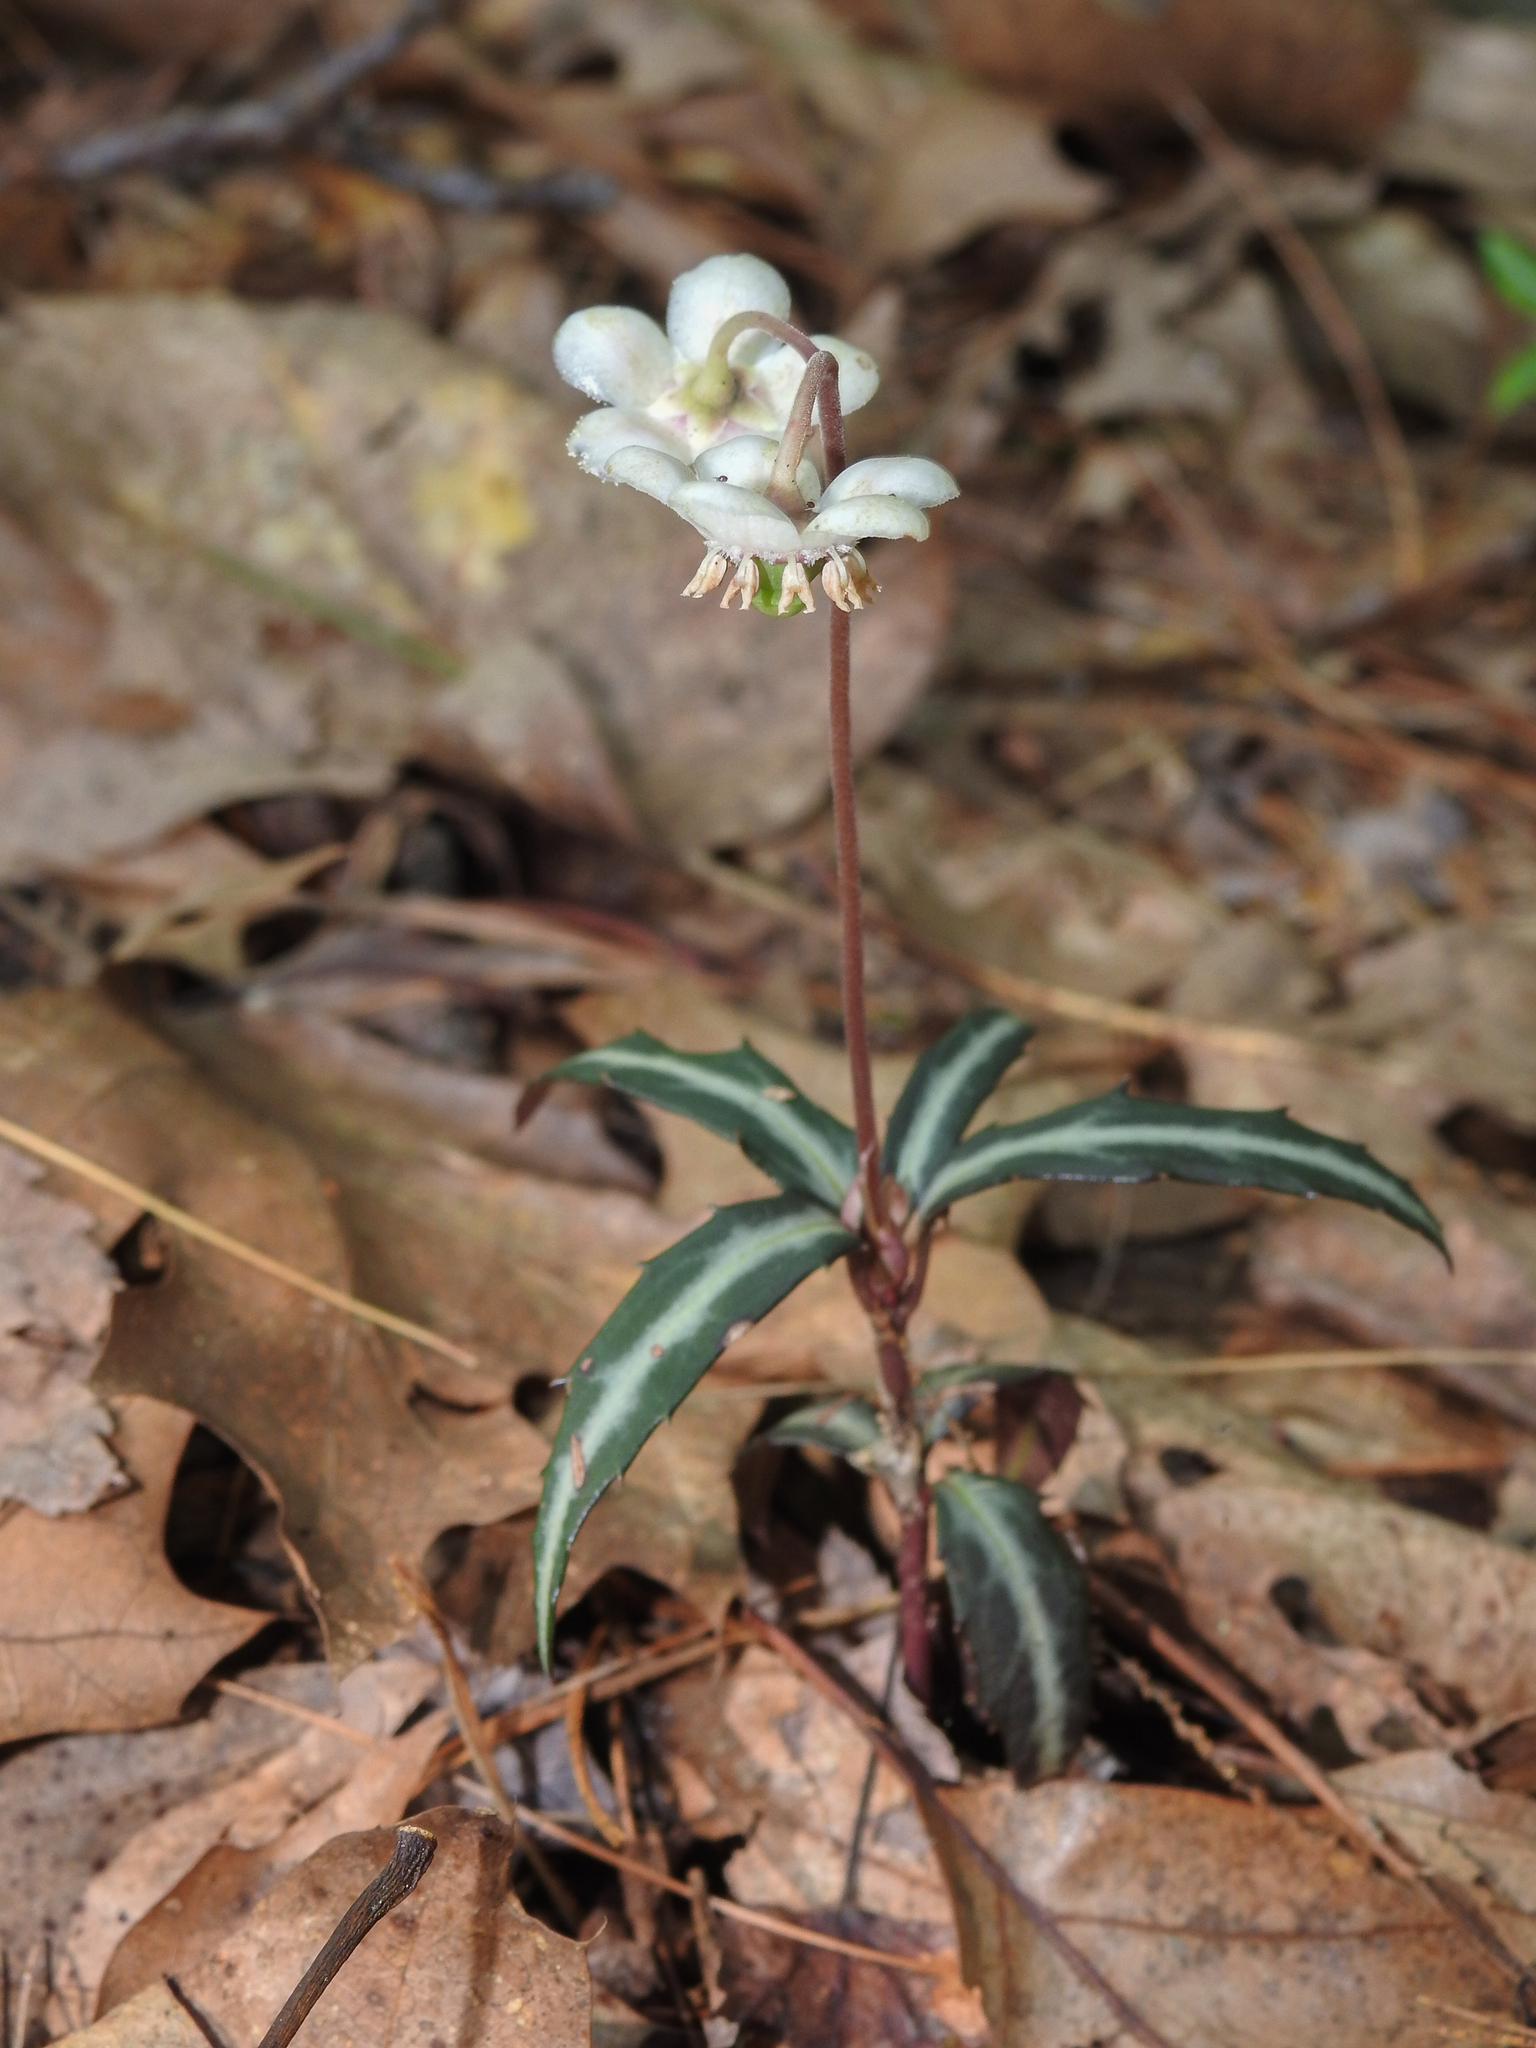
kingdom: Plantae
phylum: Tracheophyta
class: Magnoliopsida
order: Ericales
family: Ericaceae
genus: Chimaphila
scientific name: Chimaphila maculata
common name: Spotted pipsissewa
